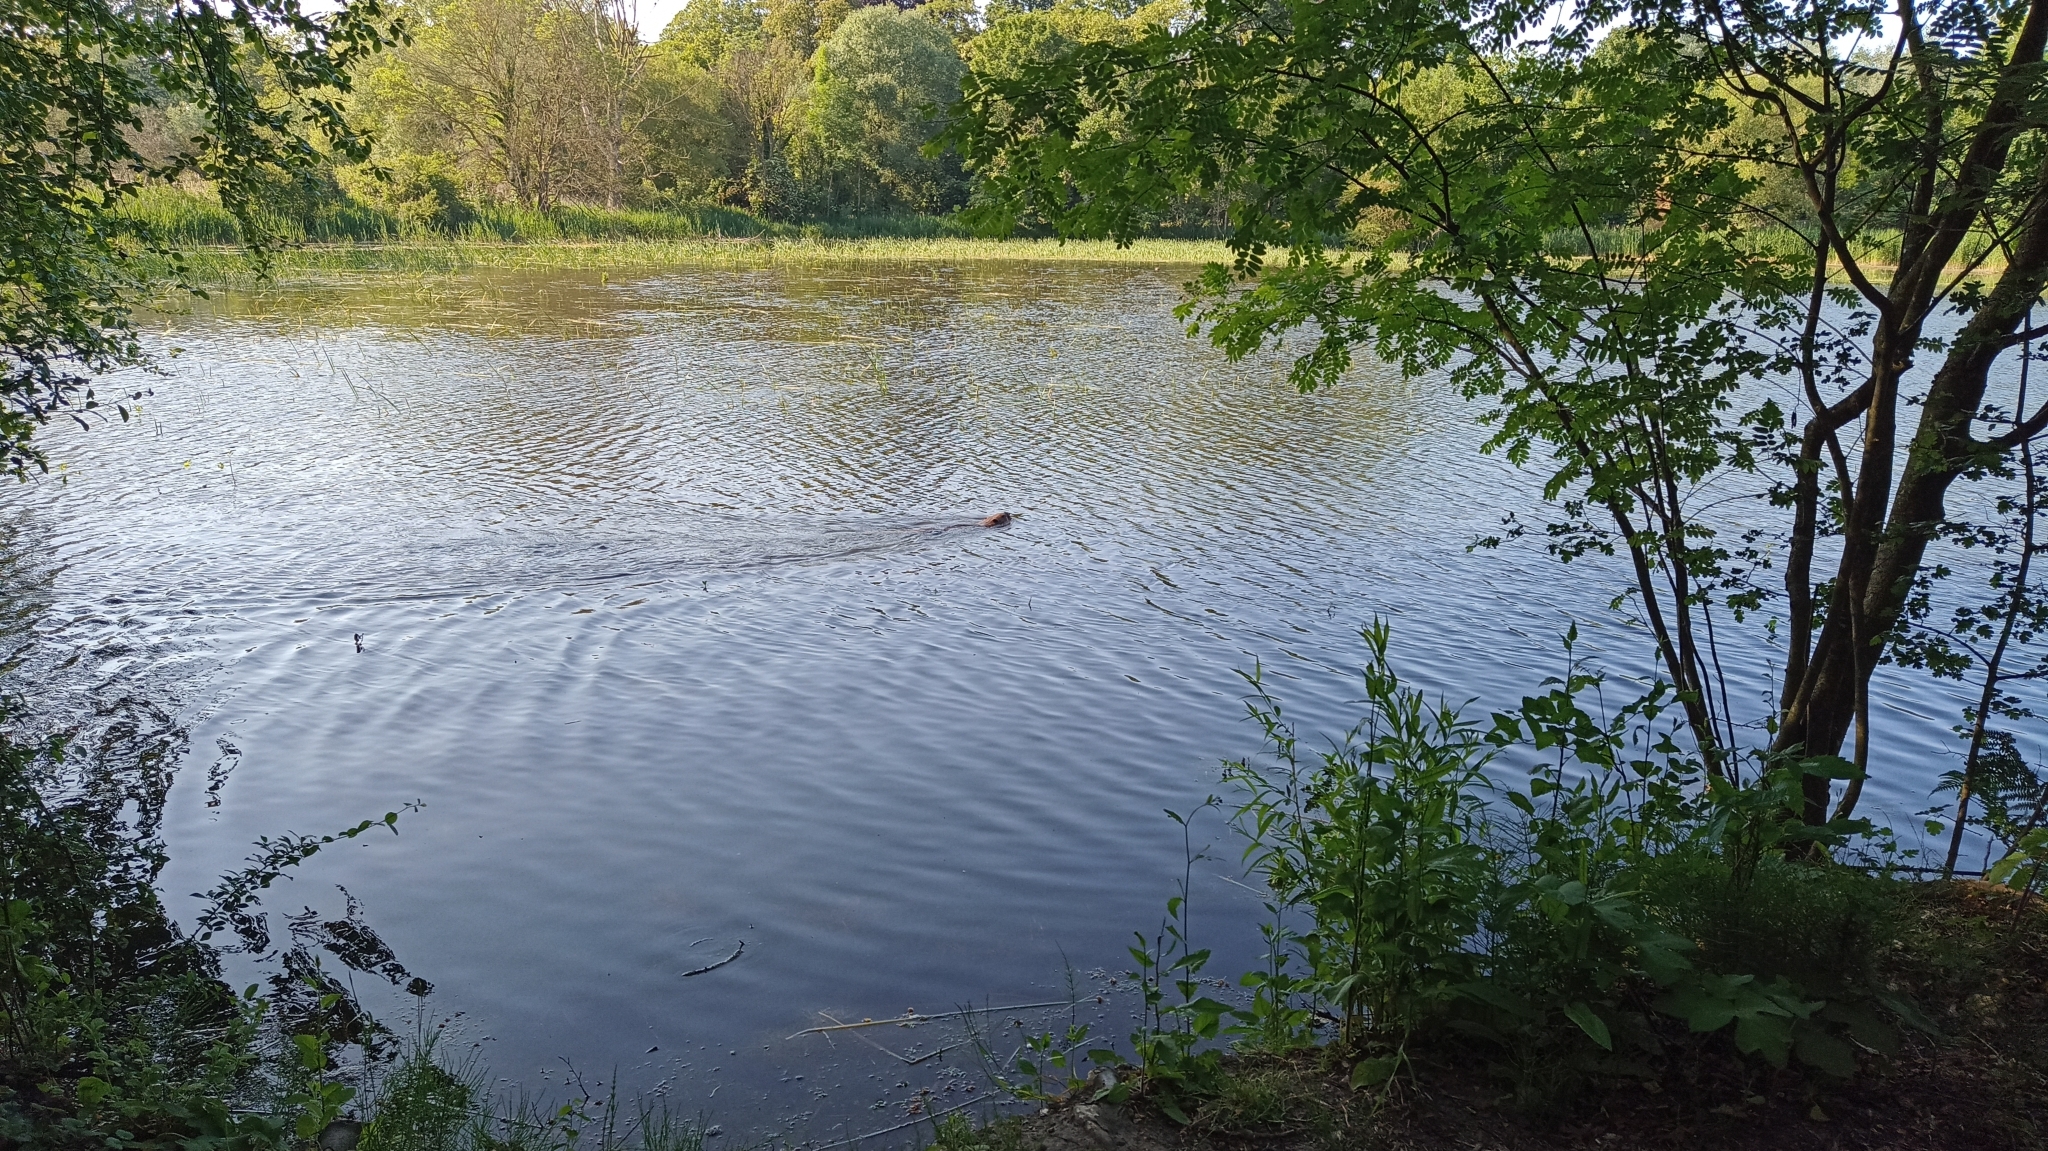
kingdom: Animalia
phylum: Chordata
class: Mammalia
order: Rodentia
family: Castoridae
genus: Castor
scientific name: Castor fiber
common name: Eurasian beaver
